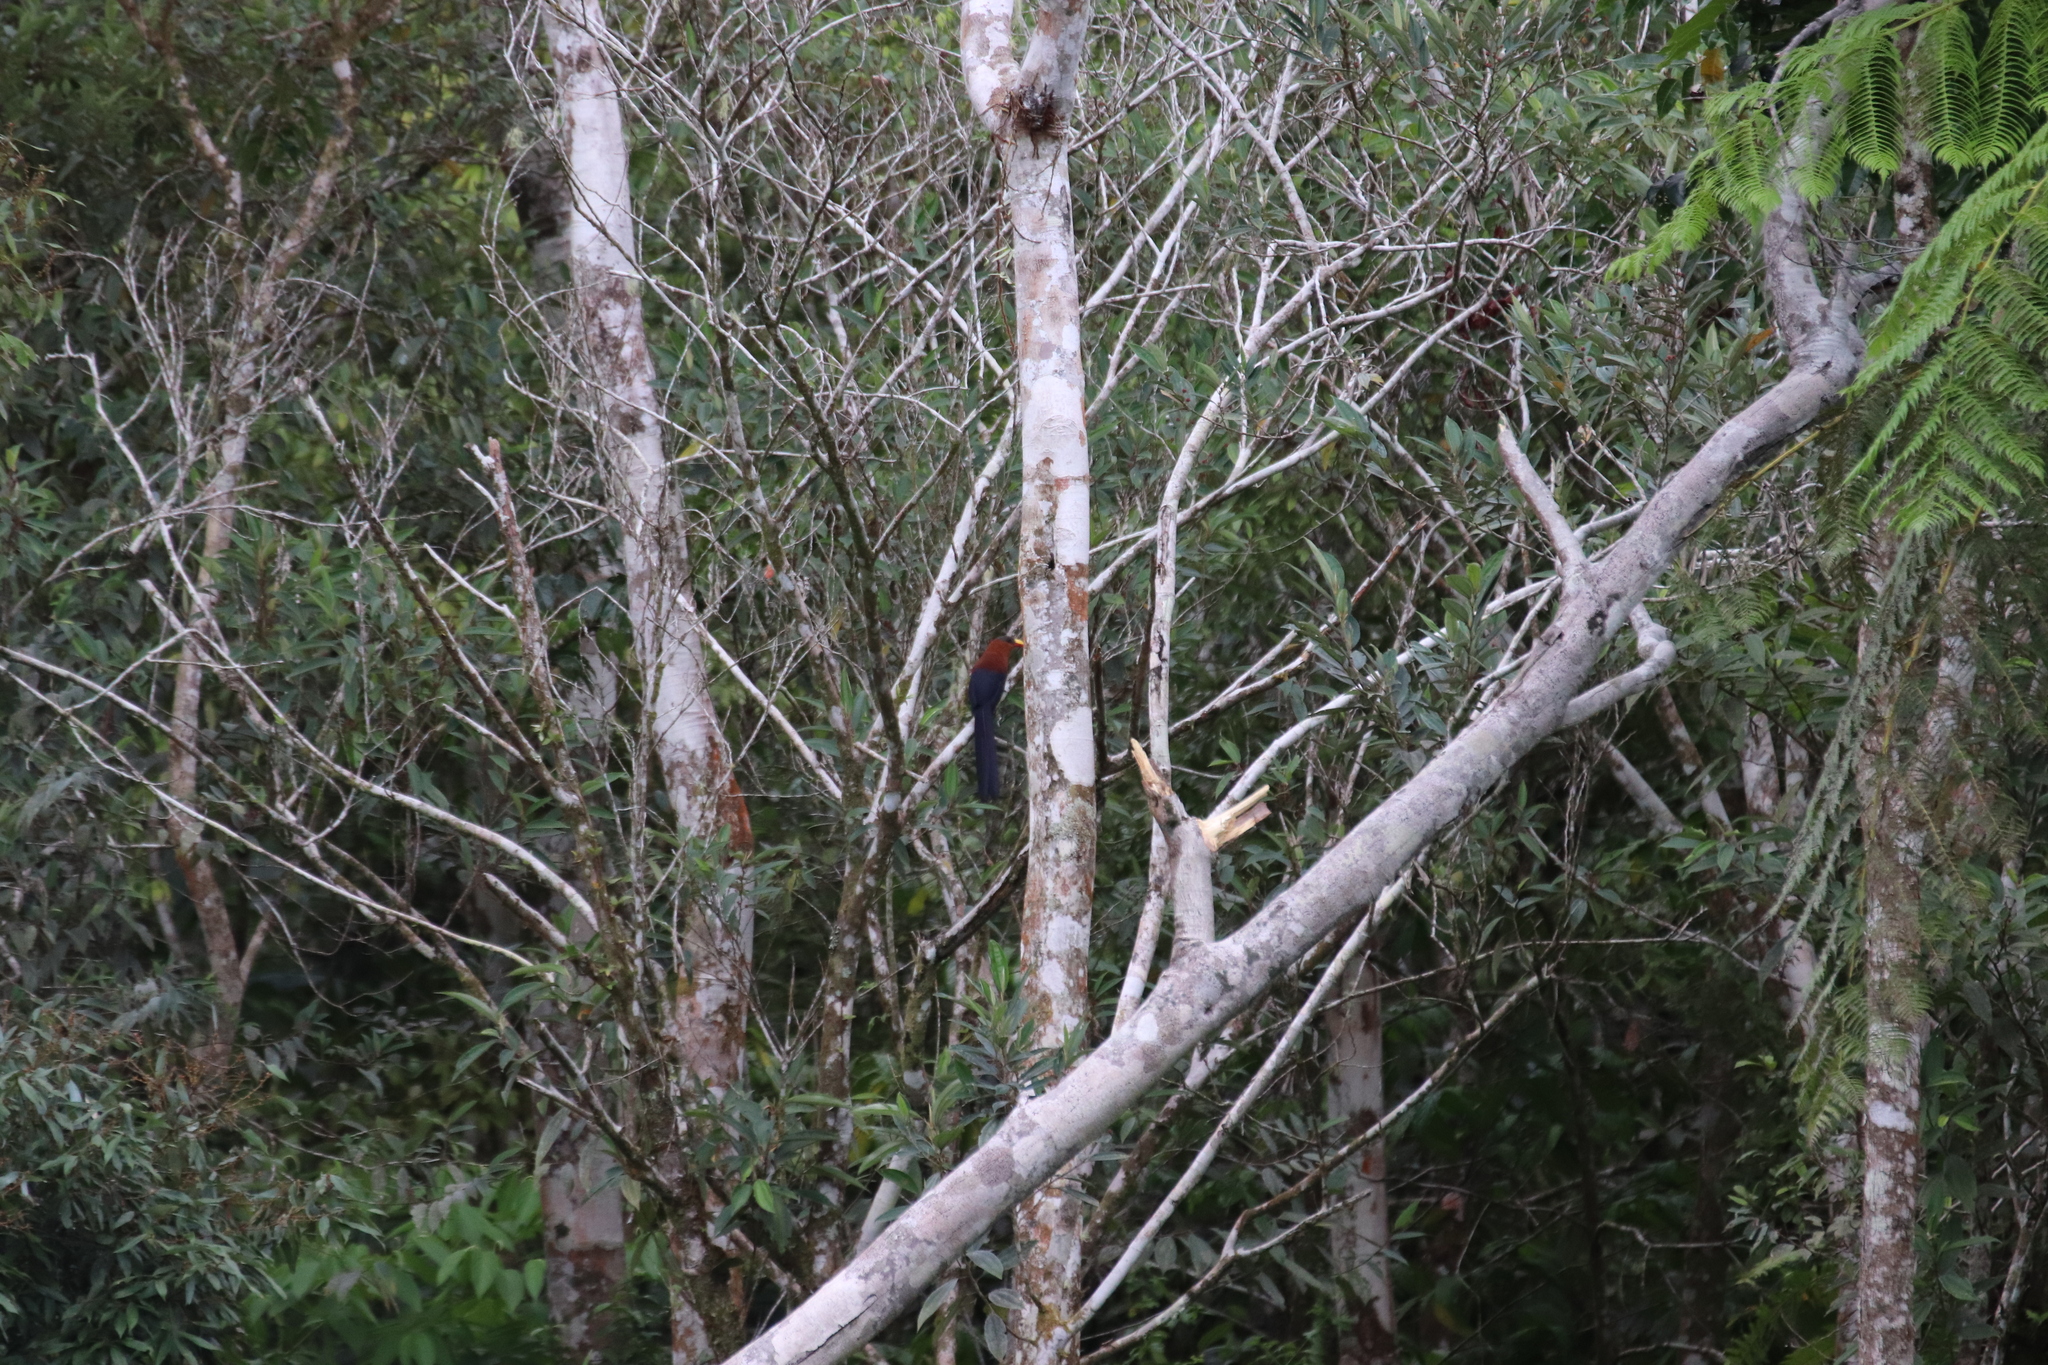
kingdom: Animalia
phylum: Chordata
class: Aves
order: Cuculiformes
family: Cuculidae
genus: Zanclostomus
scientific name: Zanclostomus calyorhynchus
